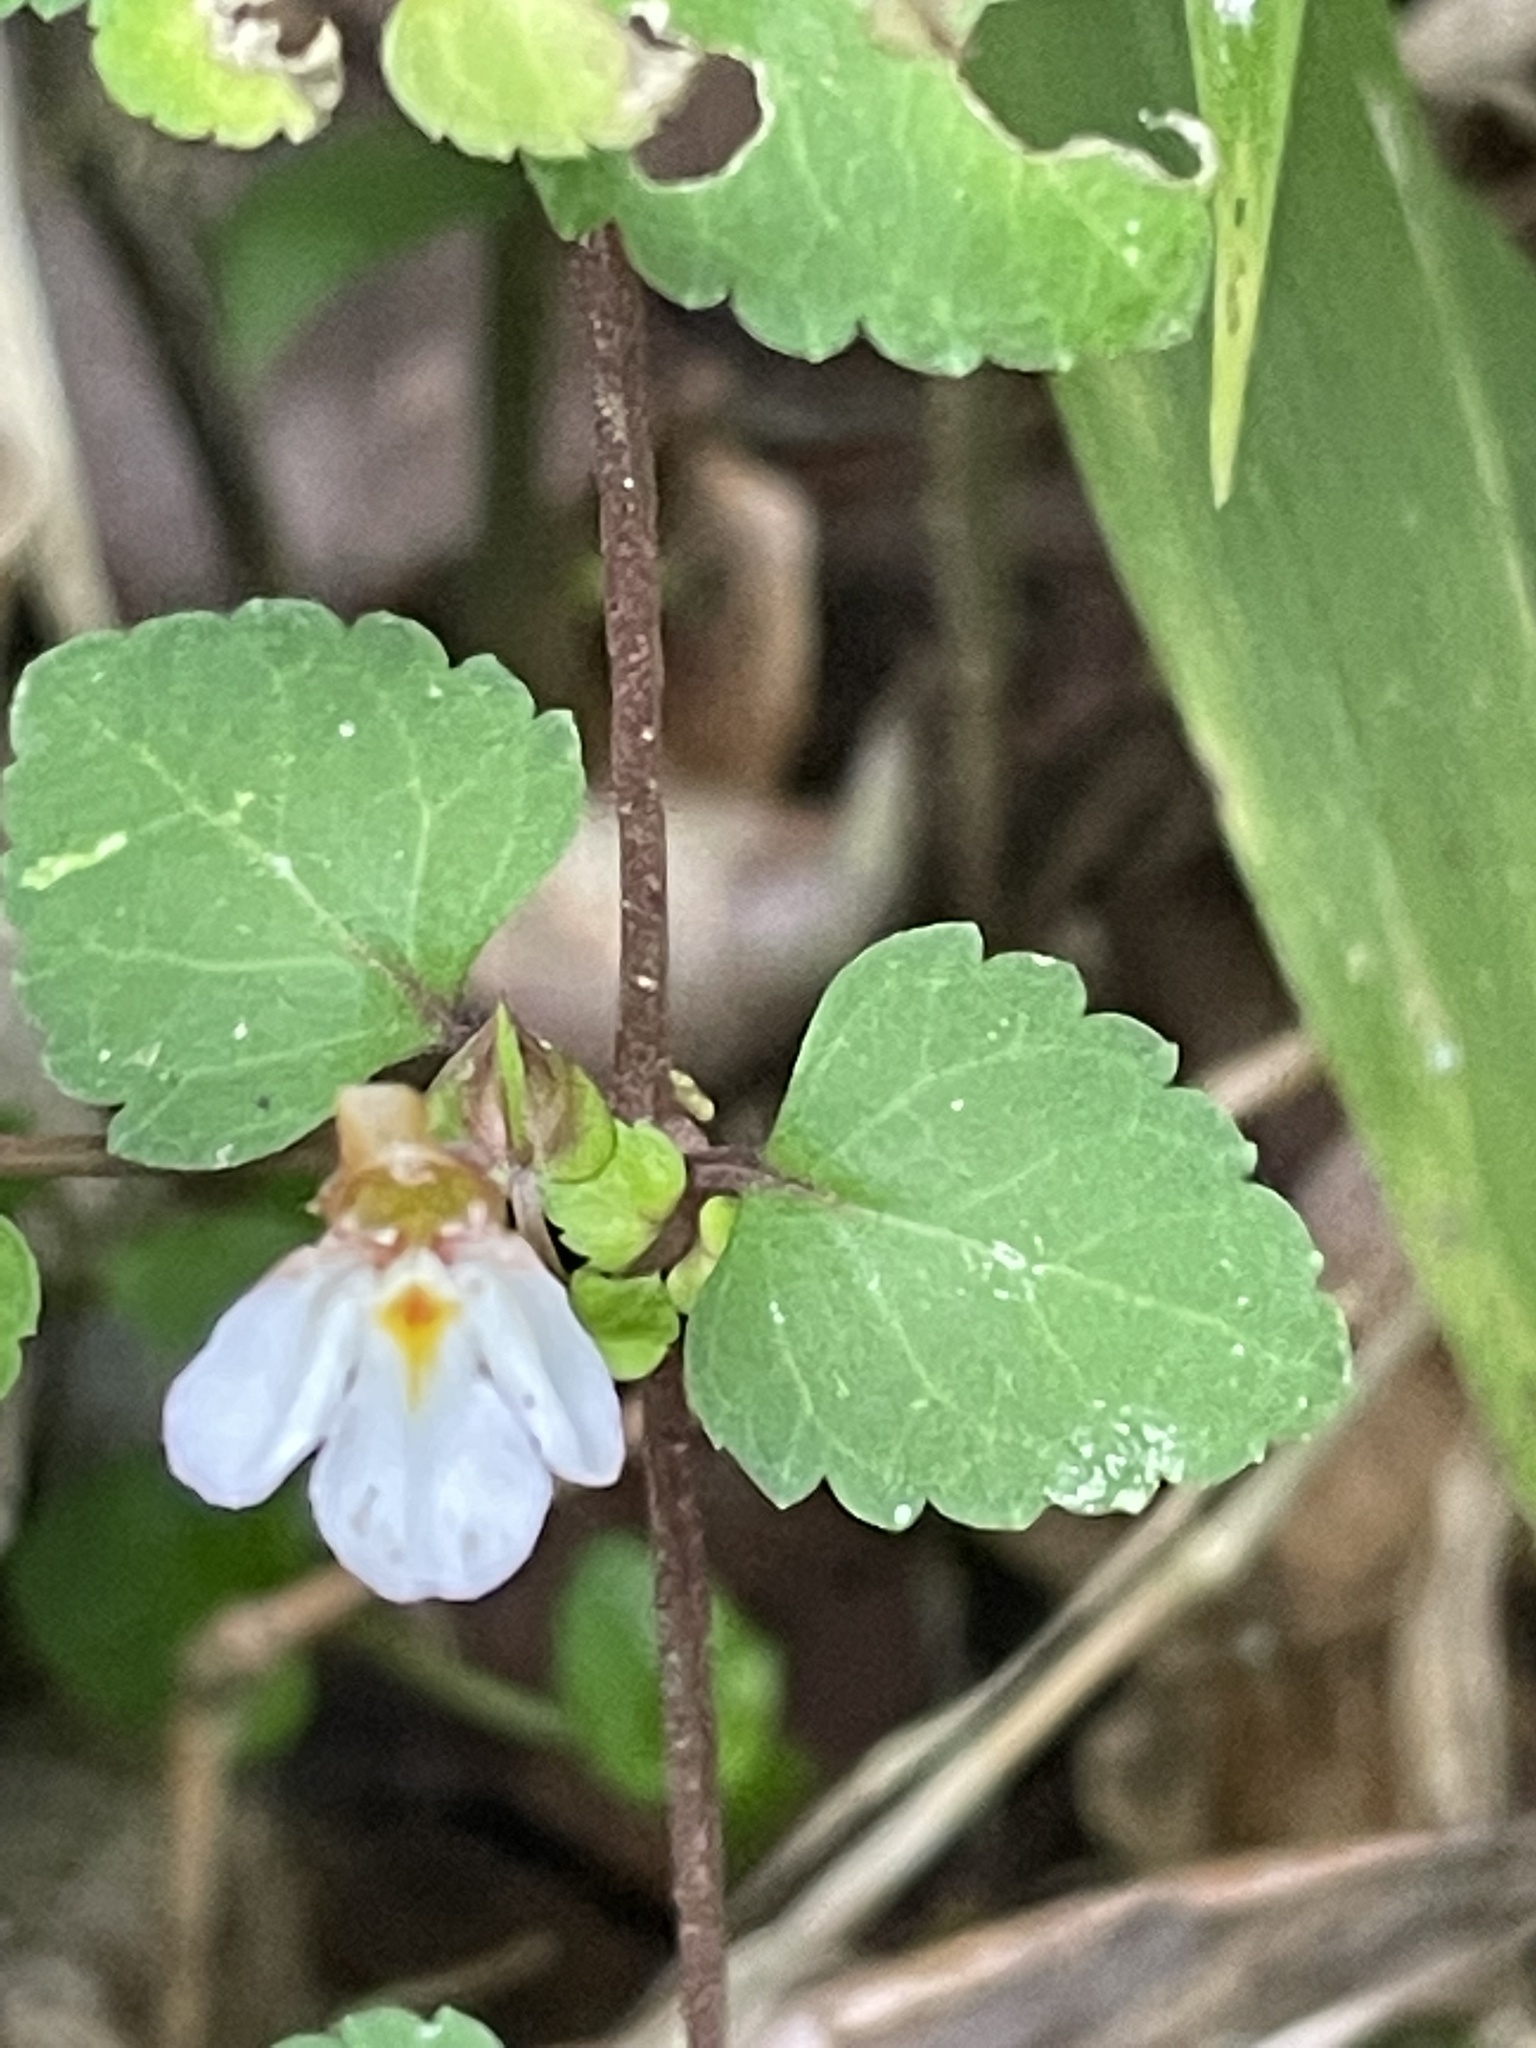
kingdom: Plantae
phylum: Tracheophyta
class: Magnoliopsida
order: Lamiales
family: Linderniaceae
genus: Legazpia
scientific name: Legazpia polygonoides
